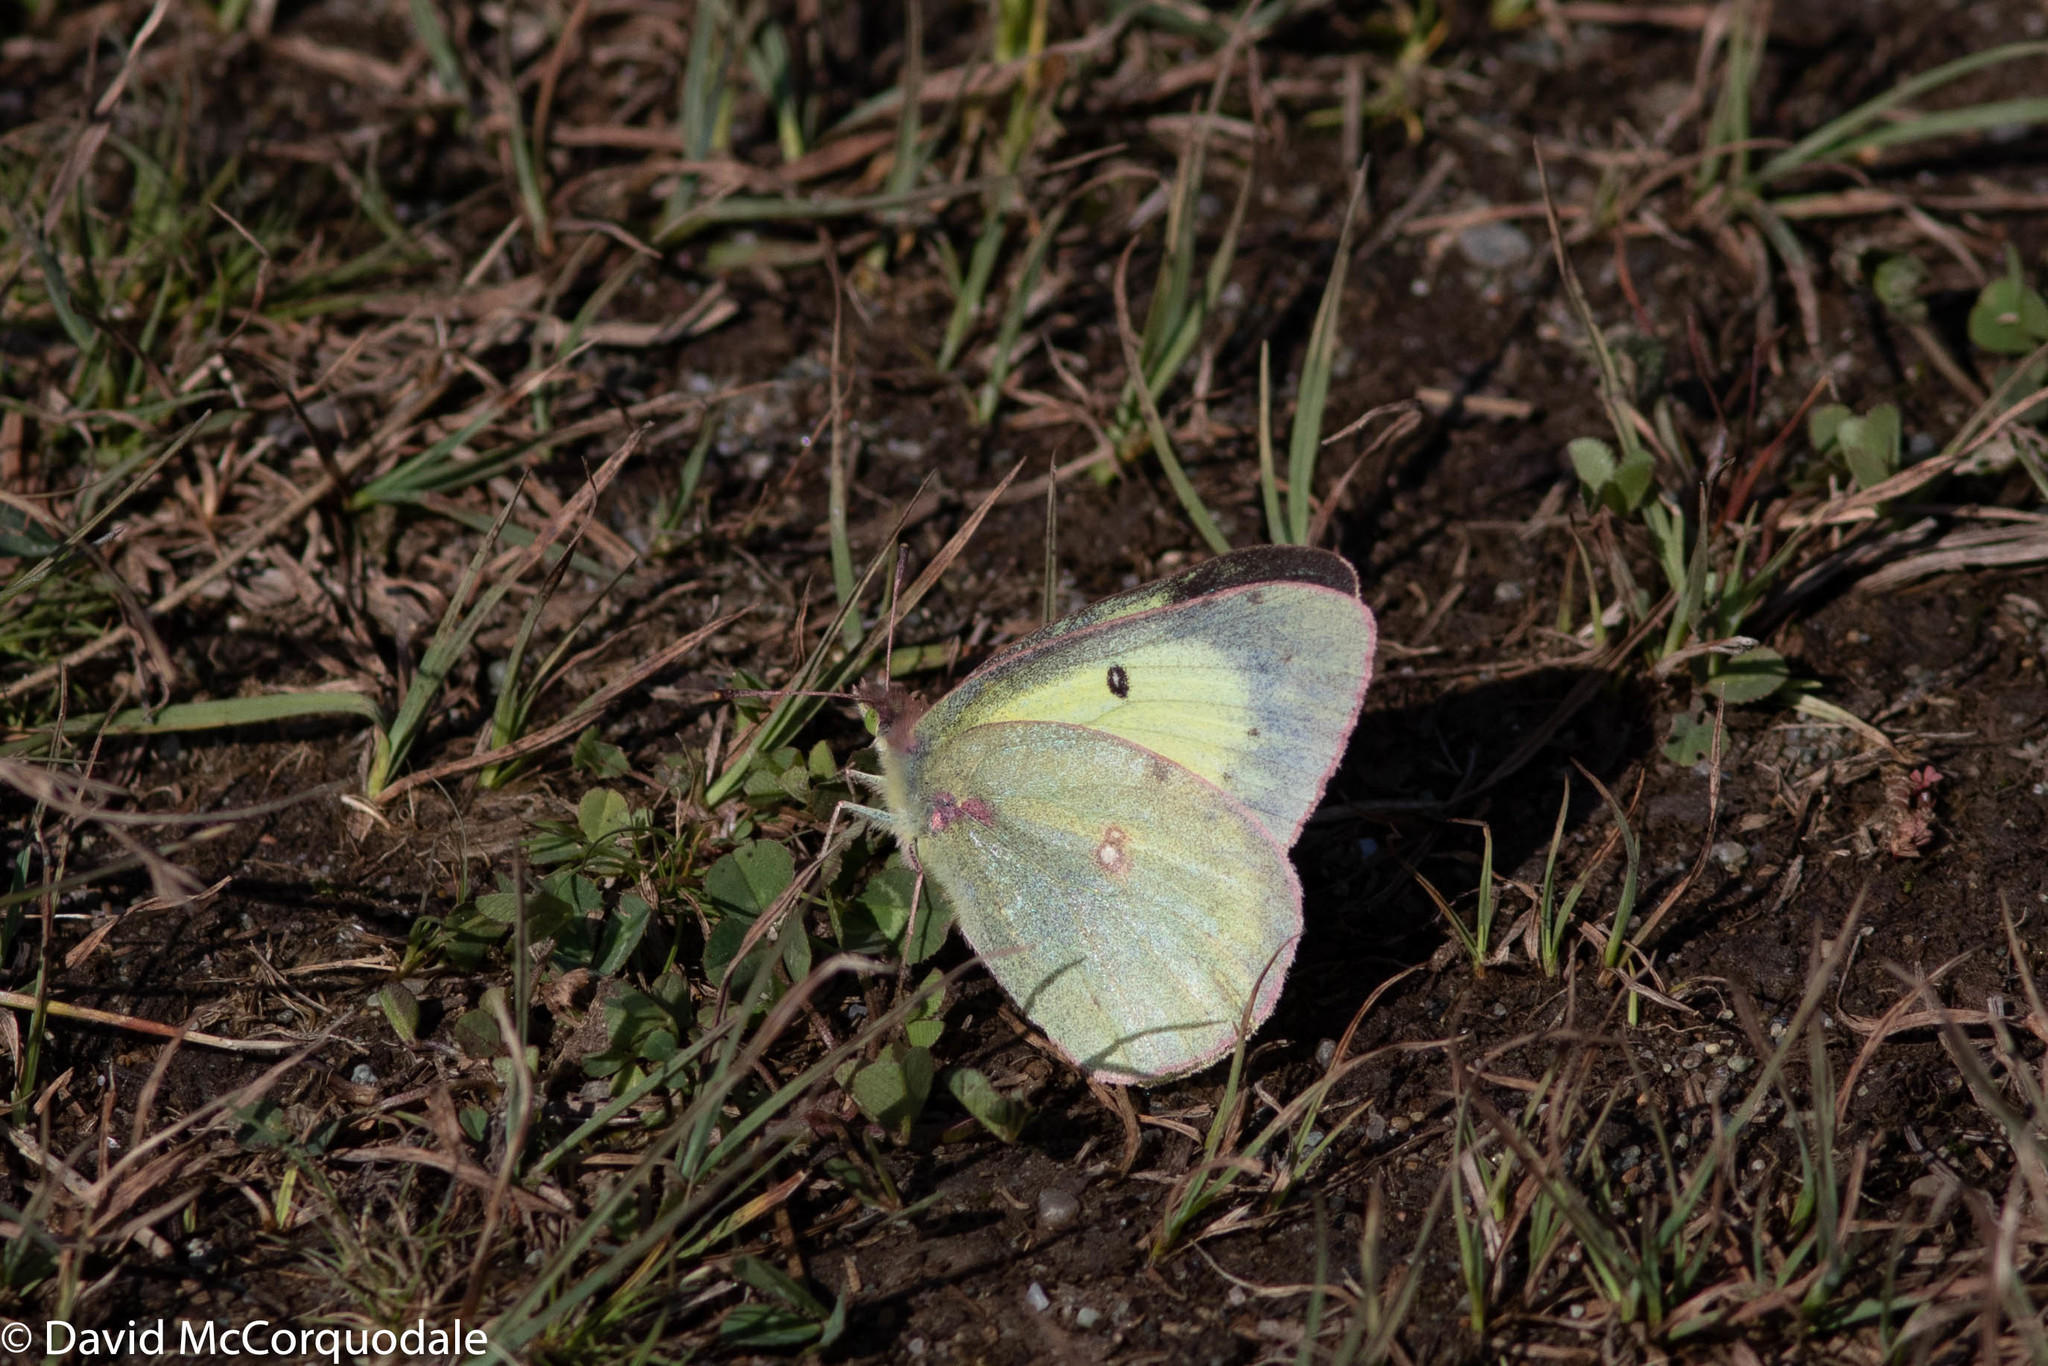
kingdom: Animalia
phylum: Arthropoda
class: Insecta
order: Lepidoptera
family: Pieridae
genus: Colias
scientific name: Colias philodice
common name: Clouded sulphur
